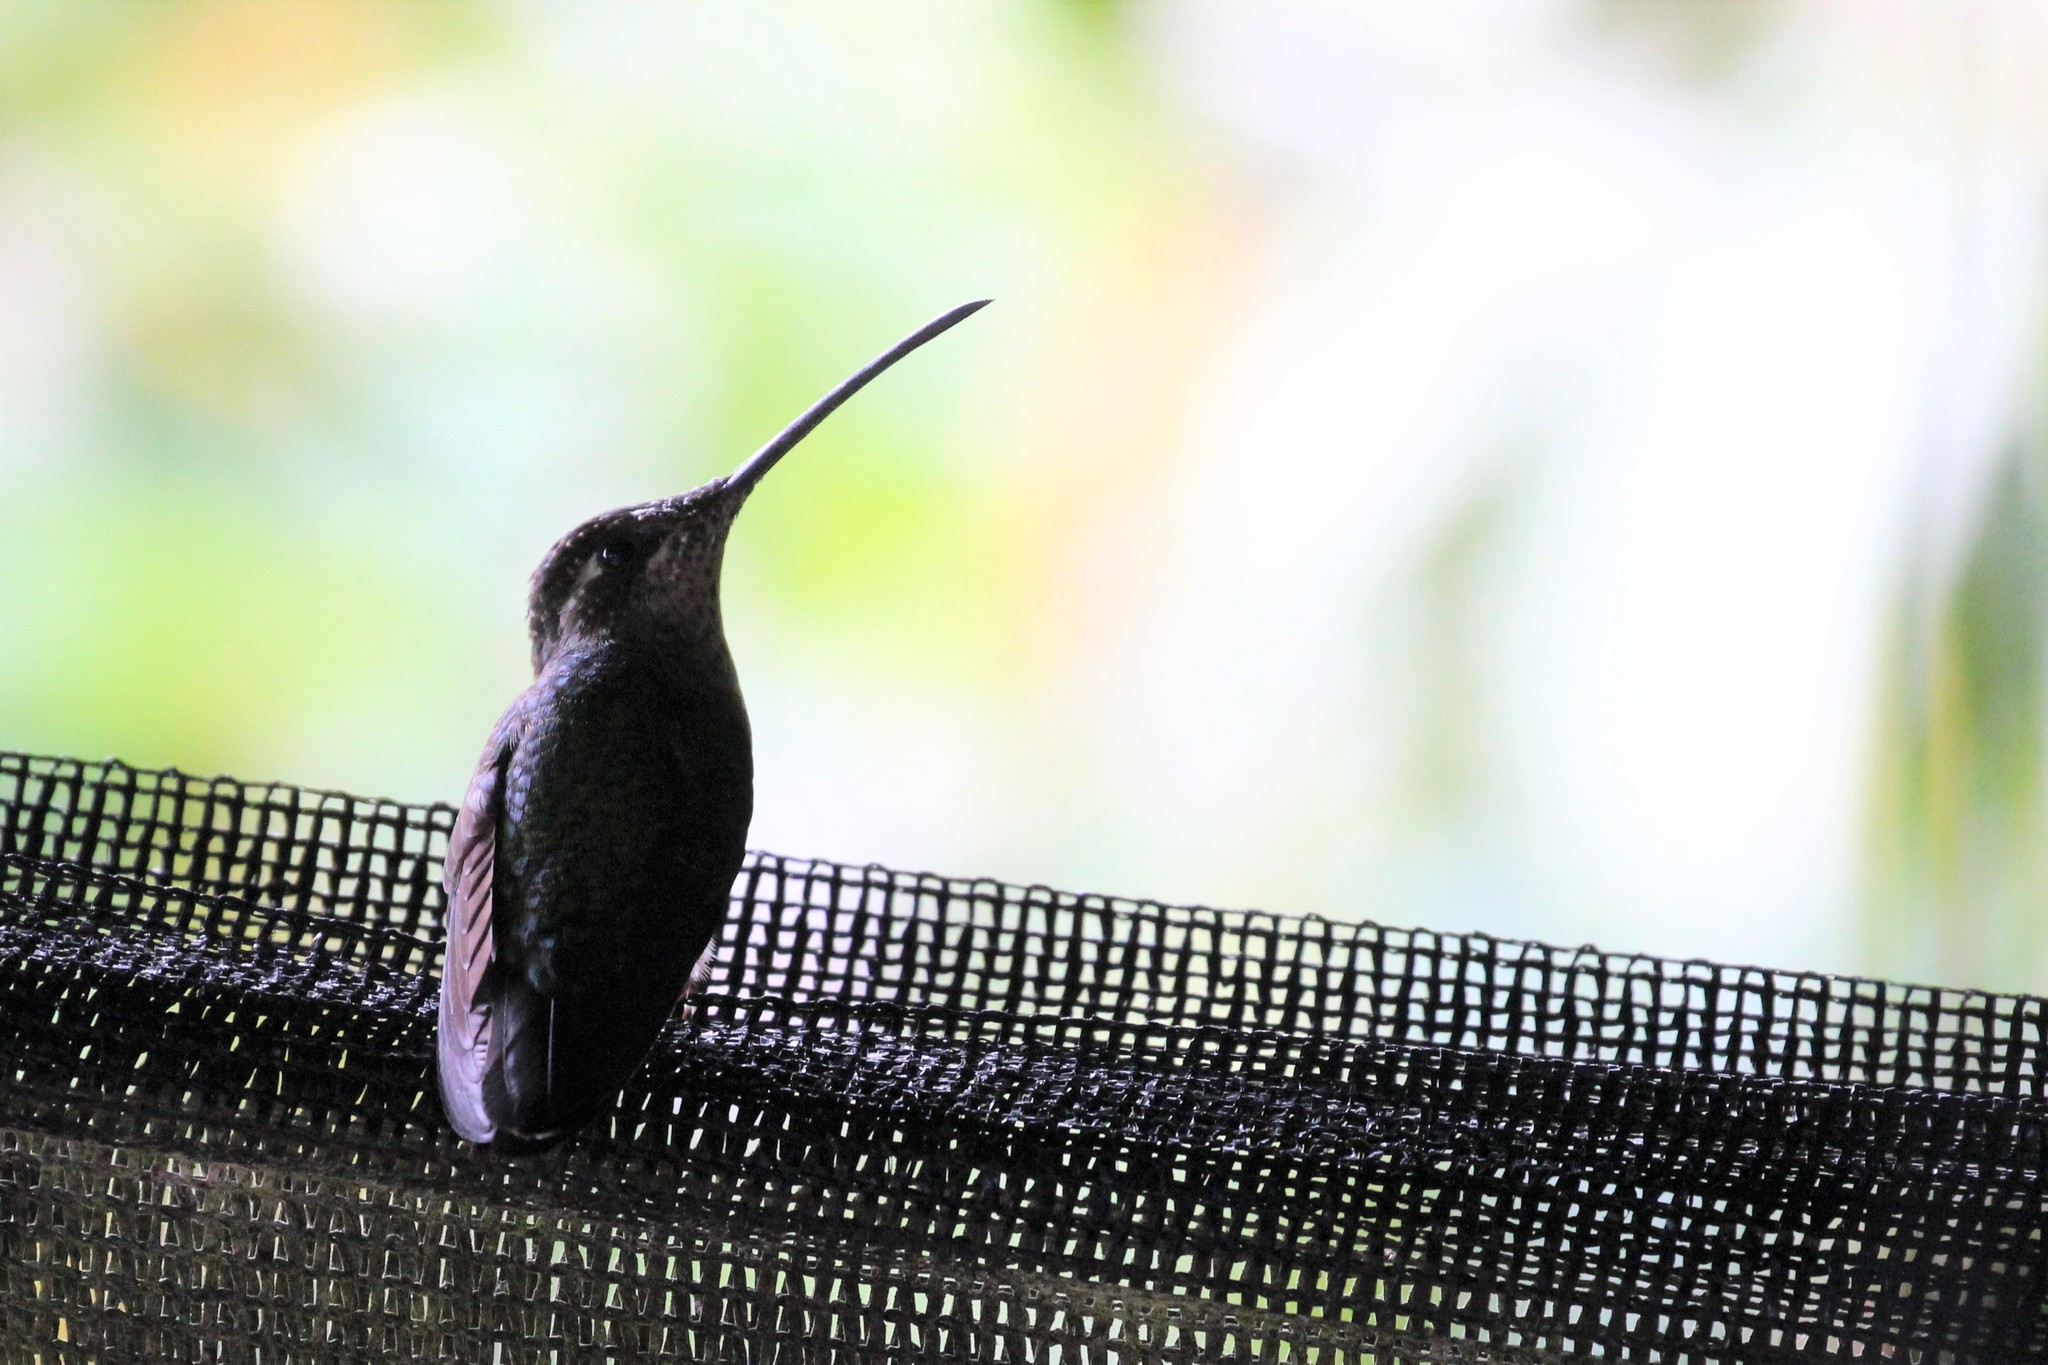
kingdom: Animalia
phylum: Chordata
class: Aves
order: Apodiformes
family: Trochilidae
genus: Eugenes
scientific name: Eugenes spectabilis
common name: Talamanca hummingbird
